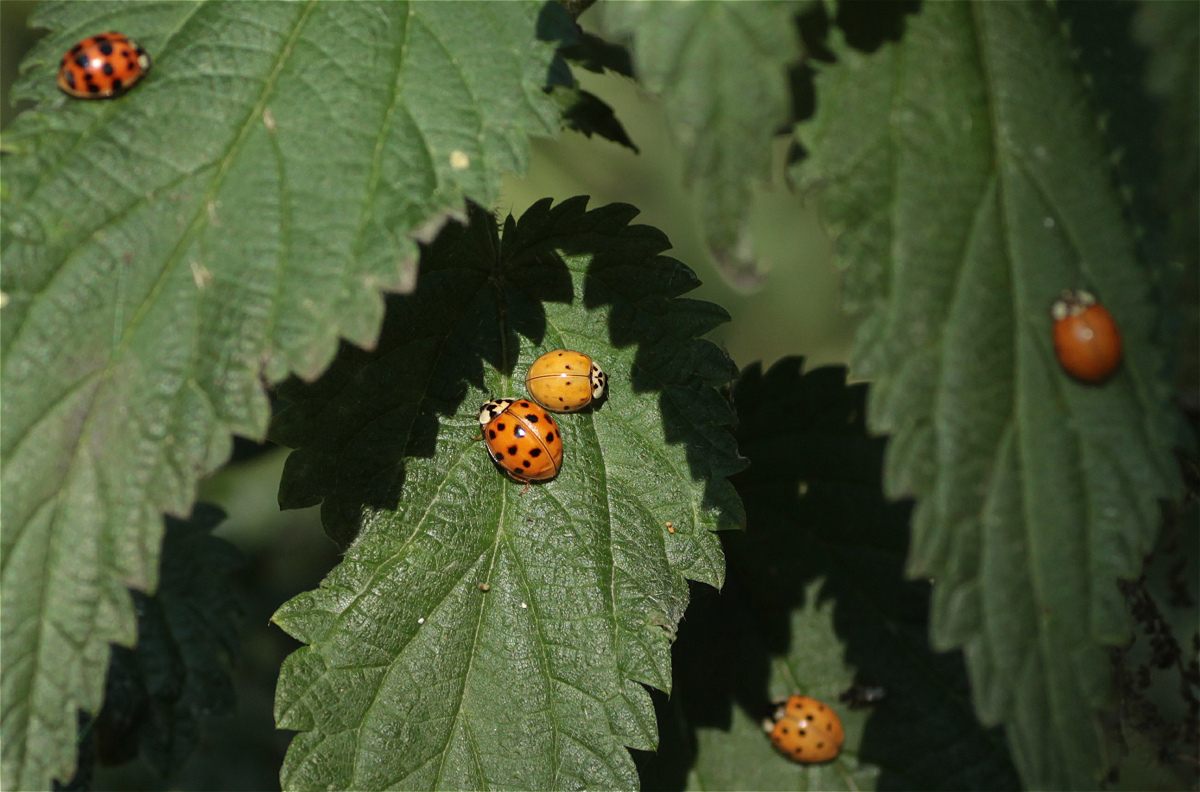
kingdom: Animalia
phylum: Arthropoda
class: Insecta
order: Coleoptera
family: Coccinellidae
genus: Harmonia
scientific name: Harmonia axyridis
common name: Harlequin ladybird
